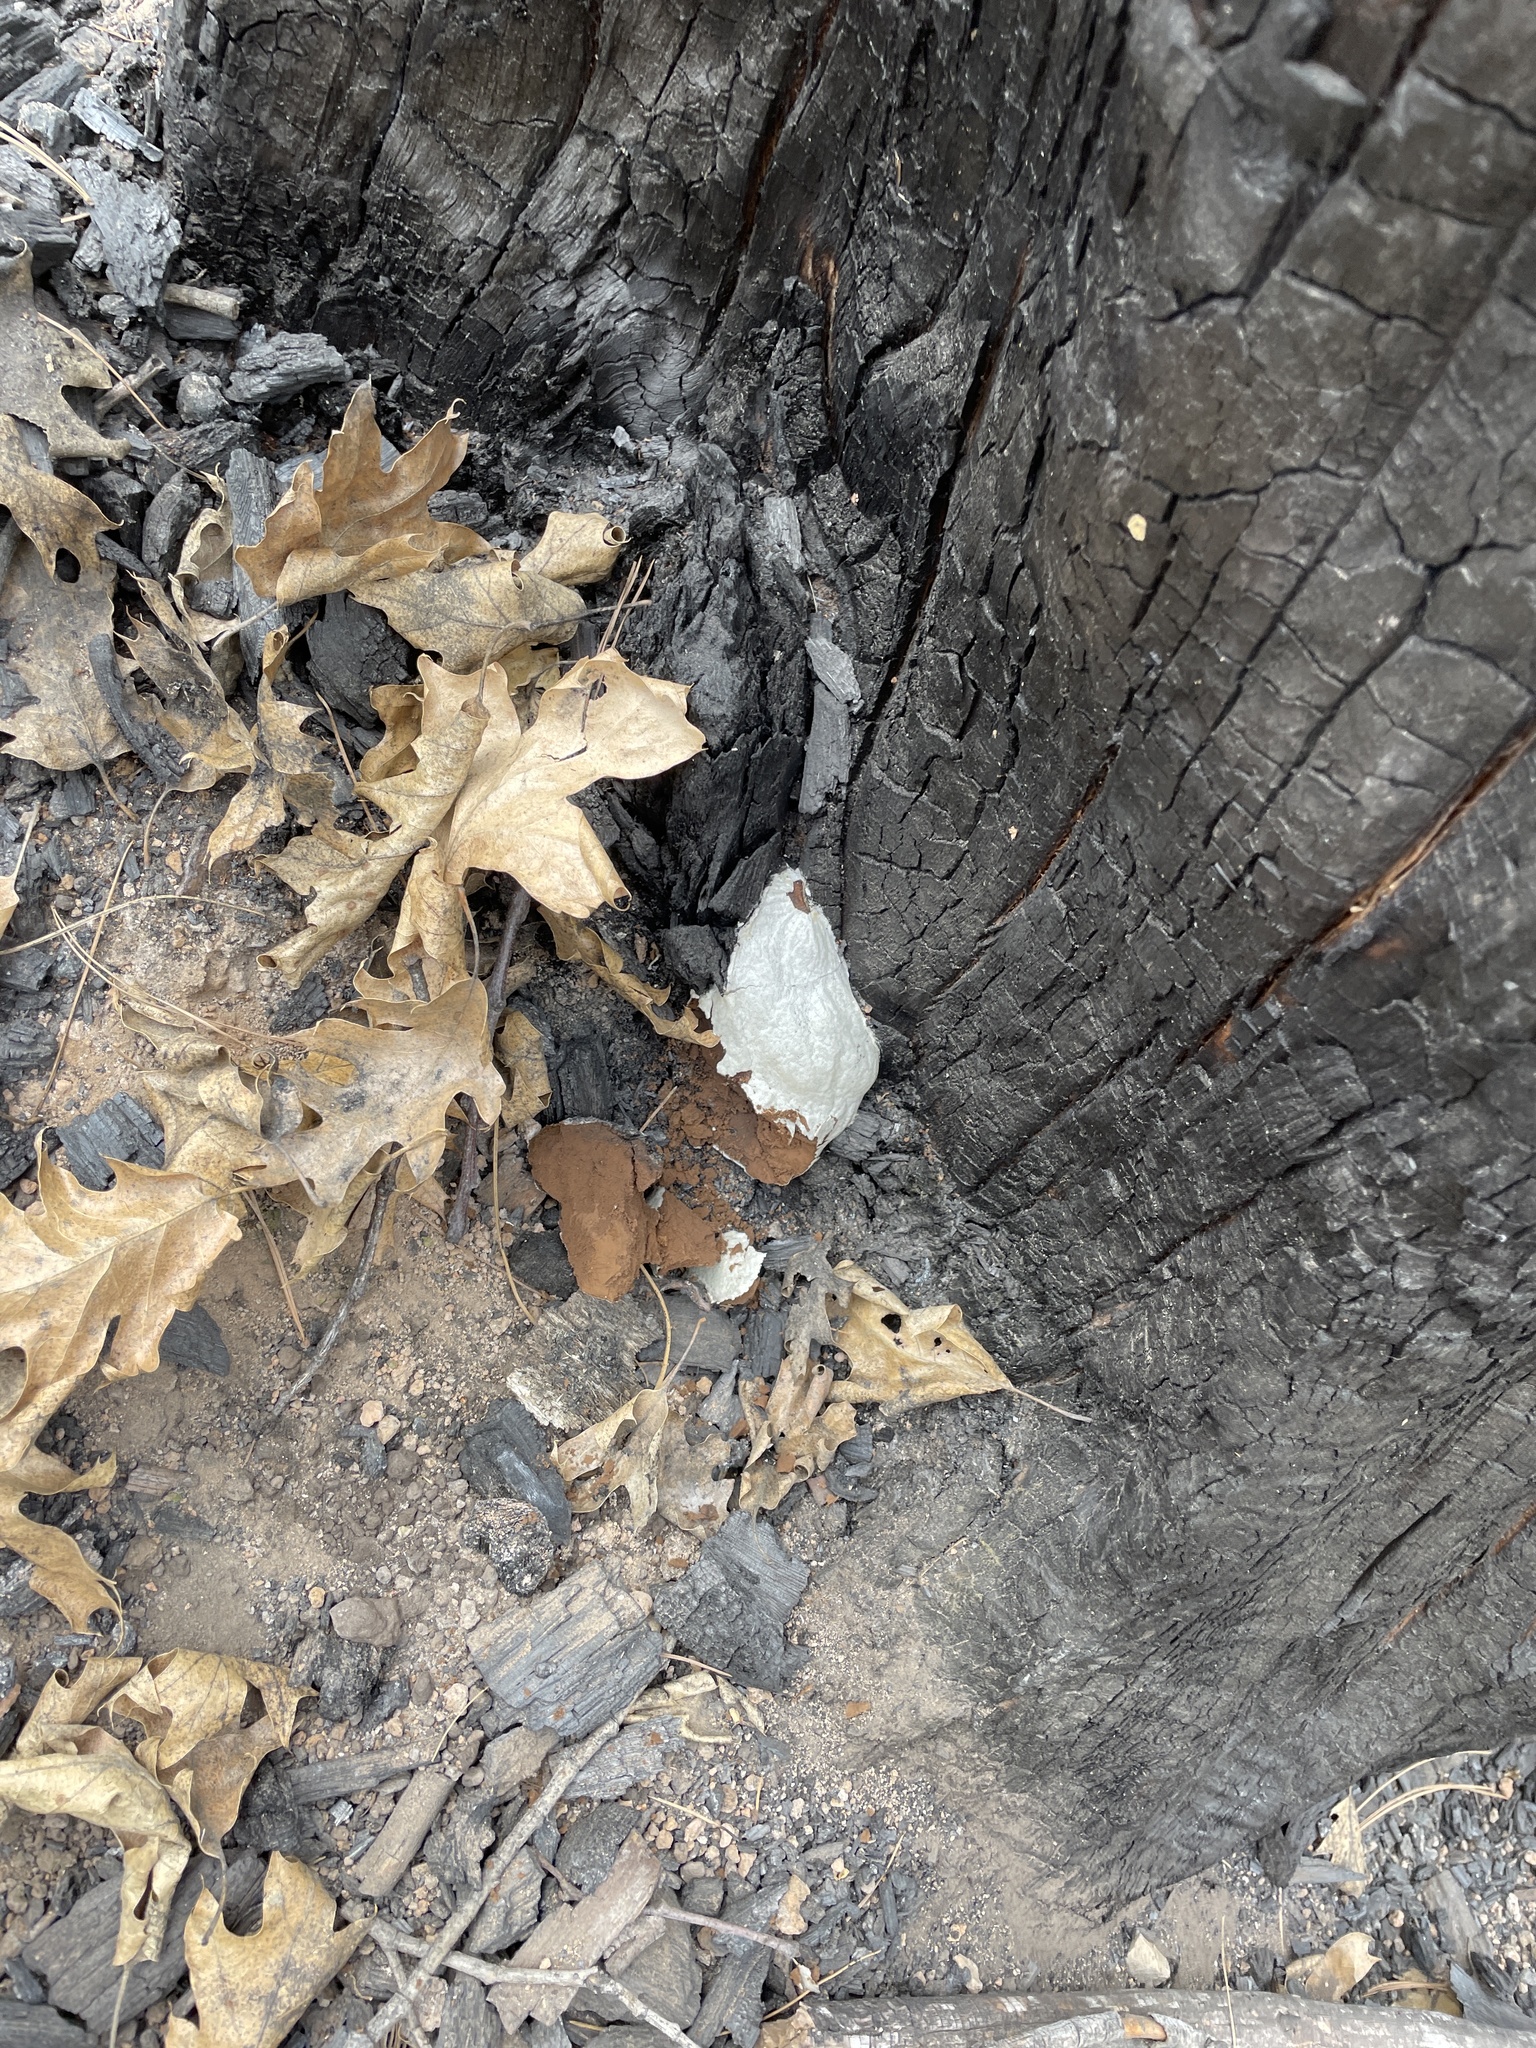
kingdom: Protozoa
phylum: Mycetozoa
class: Myxomycetes
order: Cribrariales
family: Tubiferaceae
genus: Reticularia
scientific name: Reticularia lycoperdon
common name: False puffball
